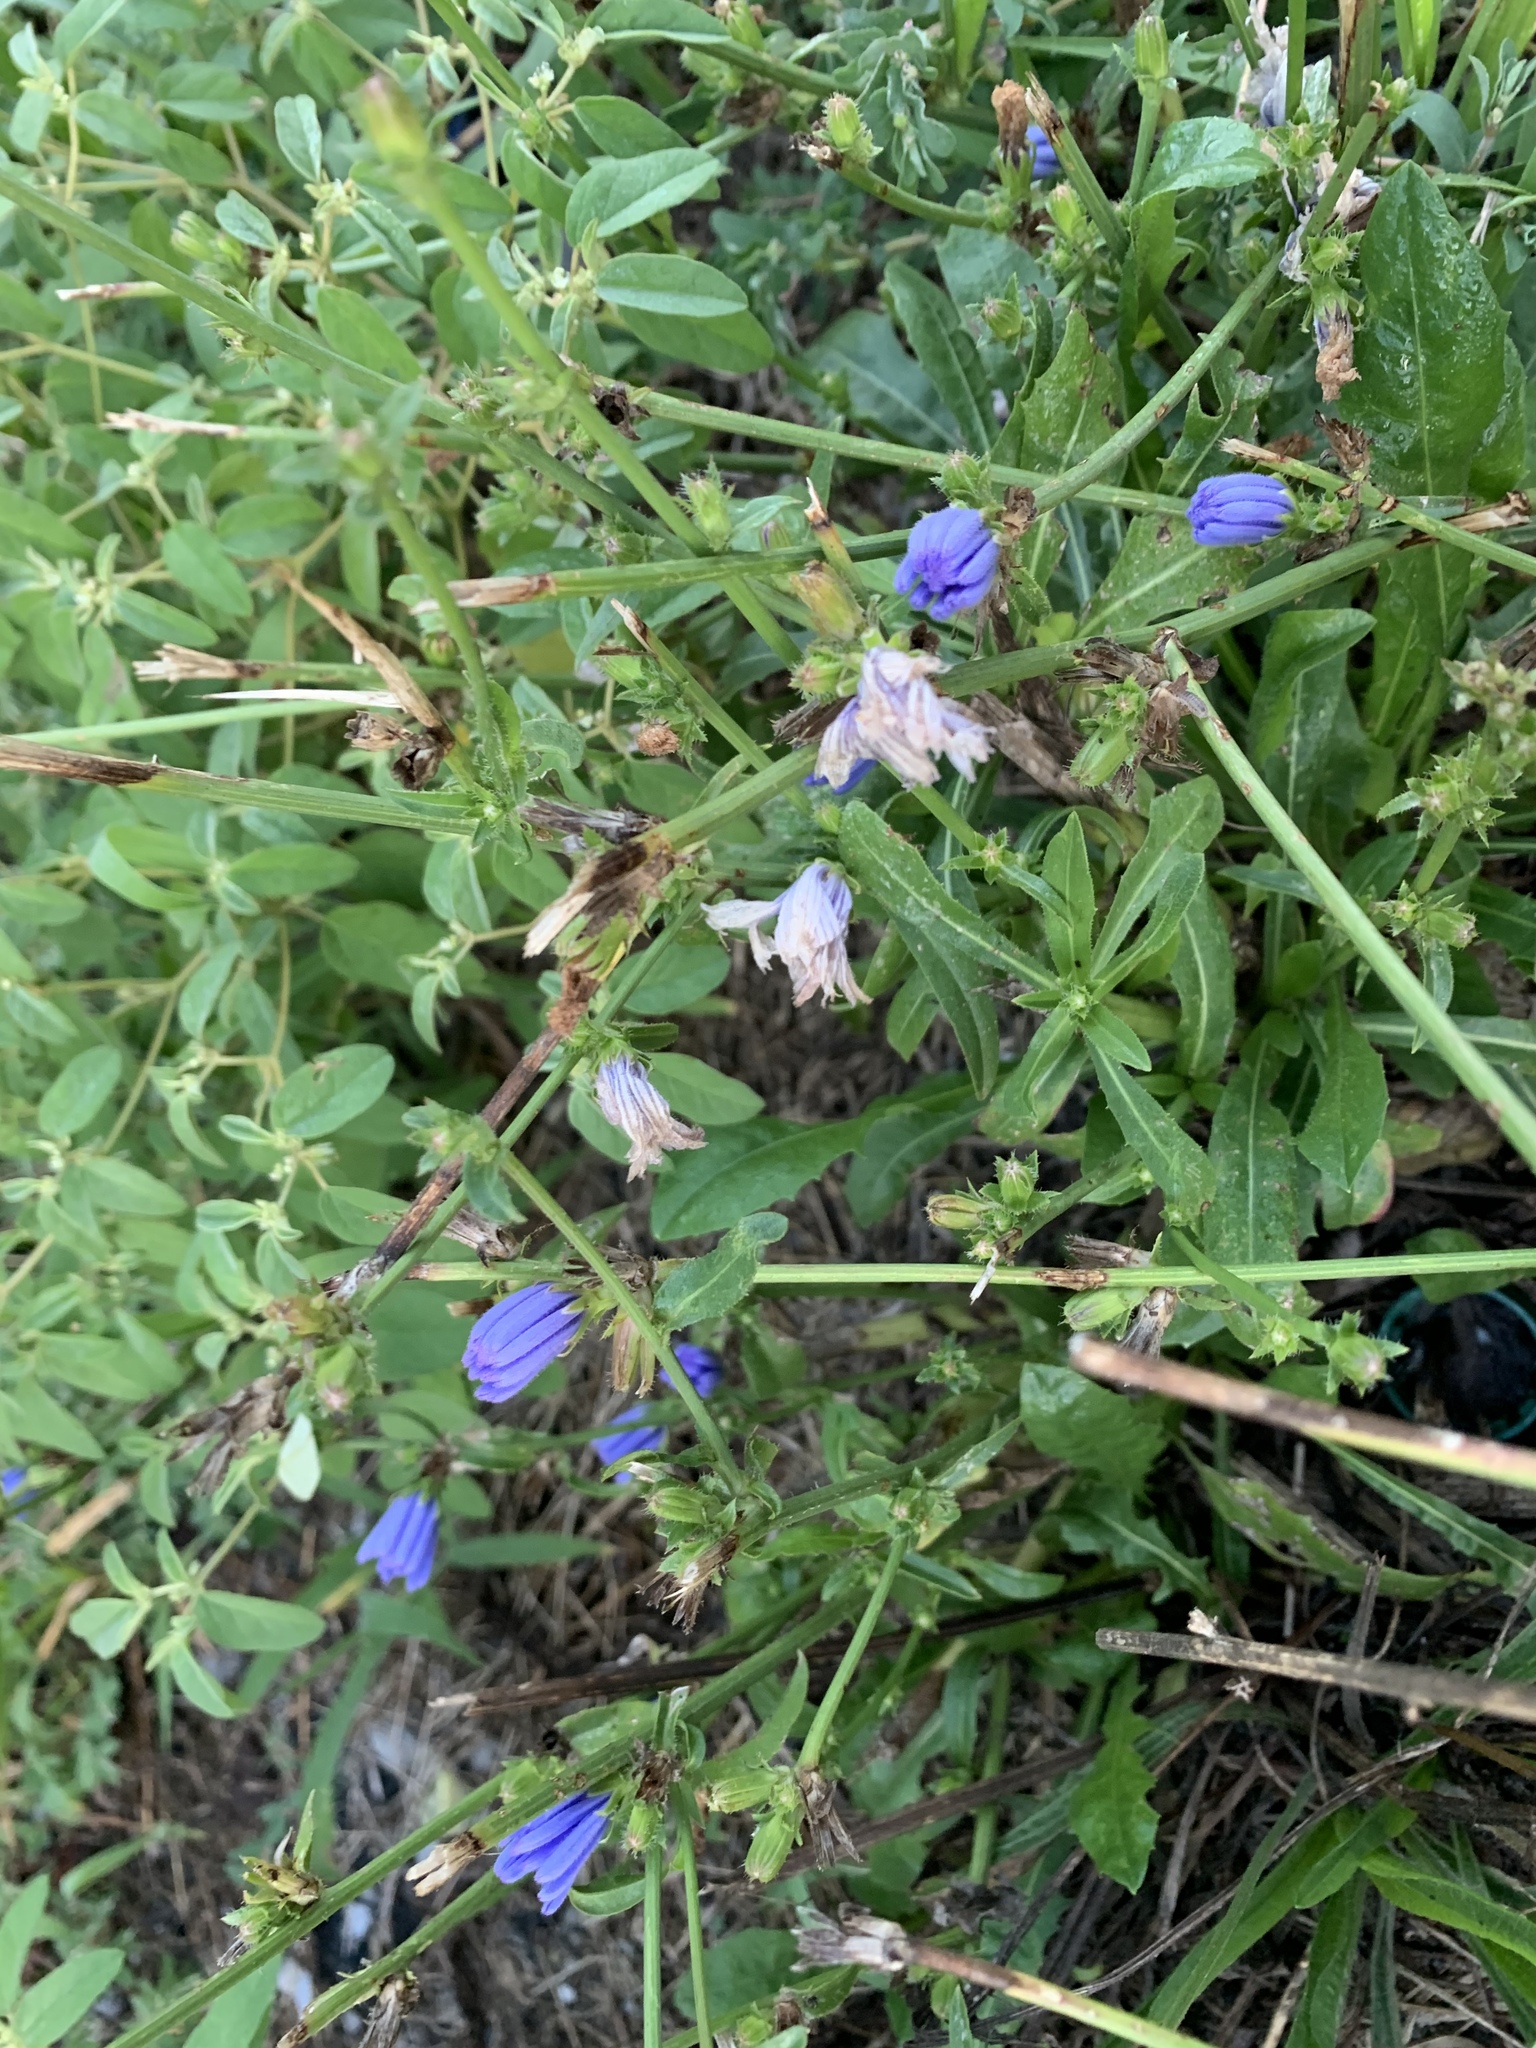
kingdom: Plantae
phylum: Tracheophyta
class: Magnoliopsida
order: Asterales
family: Asteraceae
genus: Cichorium
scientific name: Cichorium intybus
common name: Chicory
